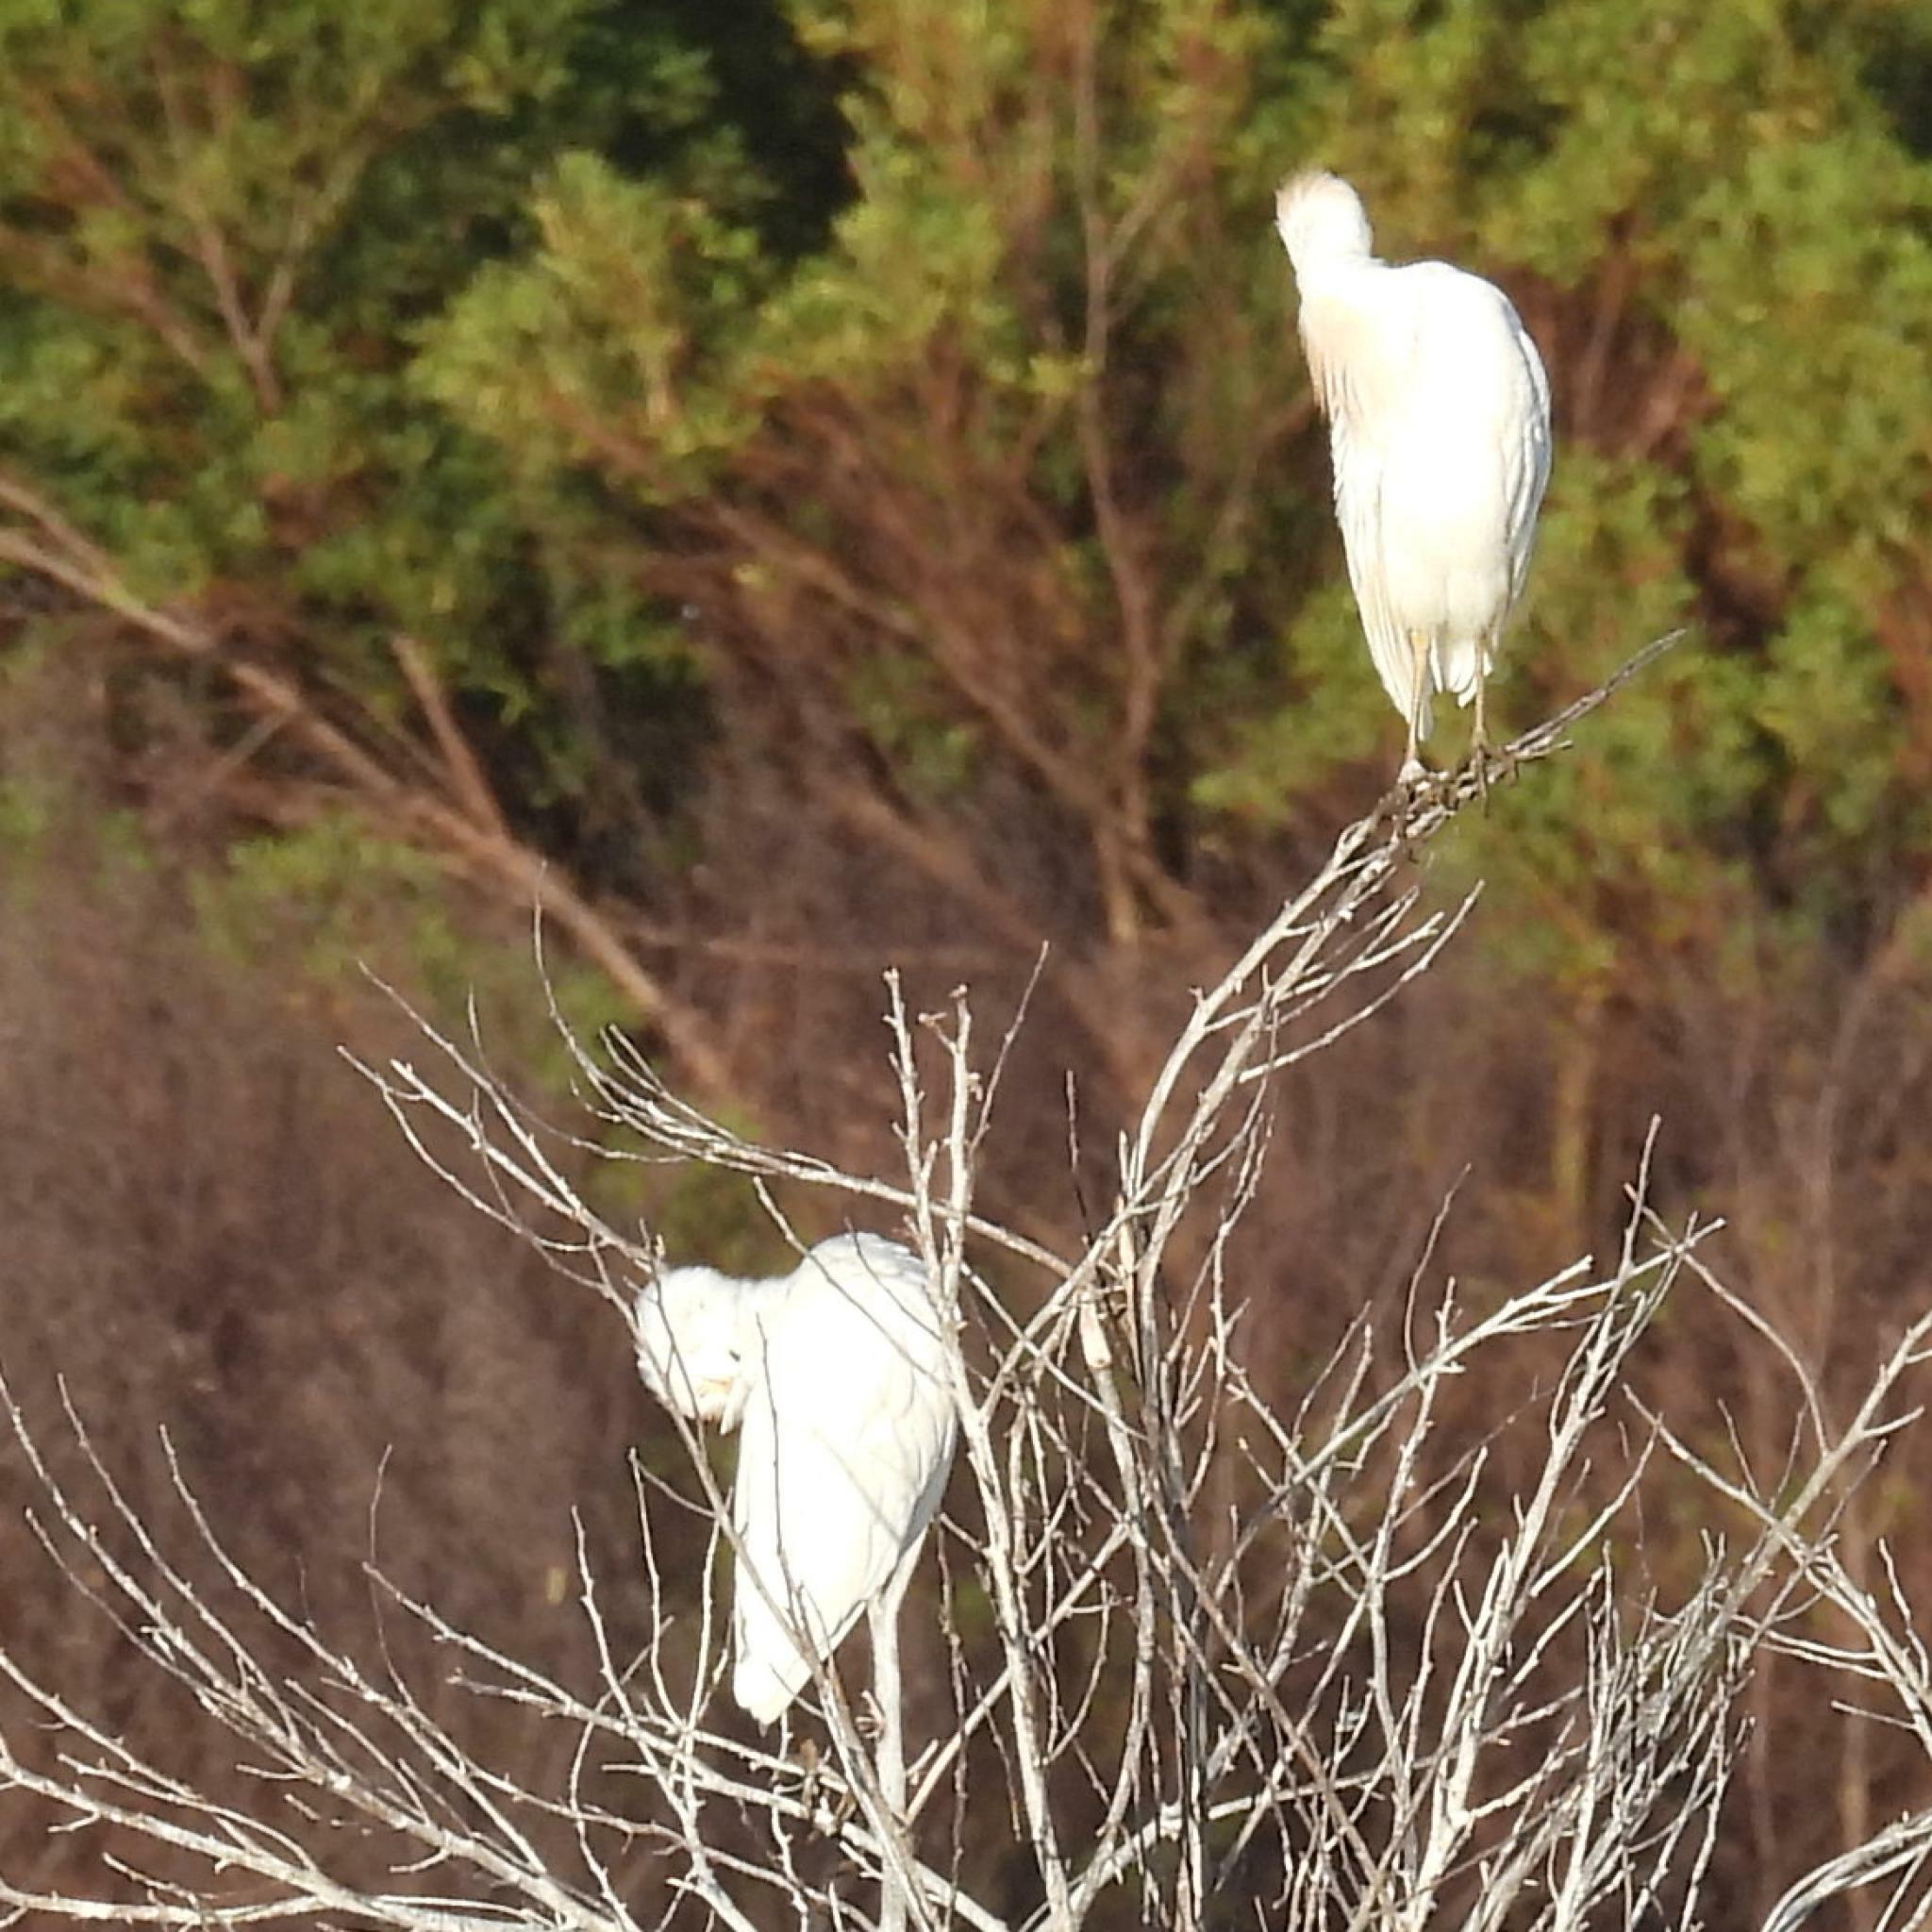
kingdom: Animalia
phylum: Chordata
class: Aves
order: Pelecaniformes
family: Ardeidae
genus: Bubulcus
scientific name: Bubulcus ibis
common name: Cattle egret
